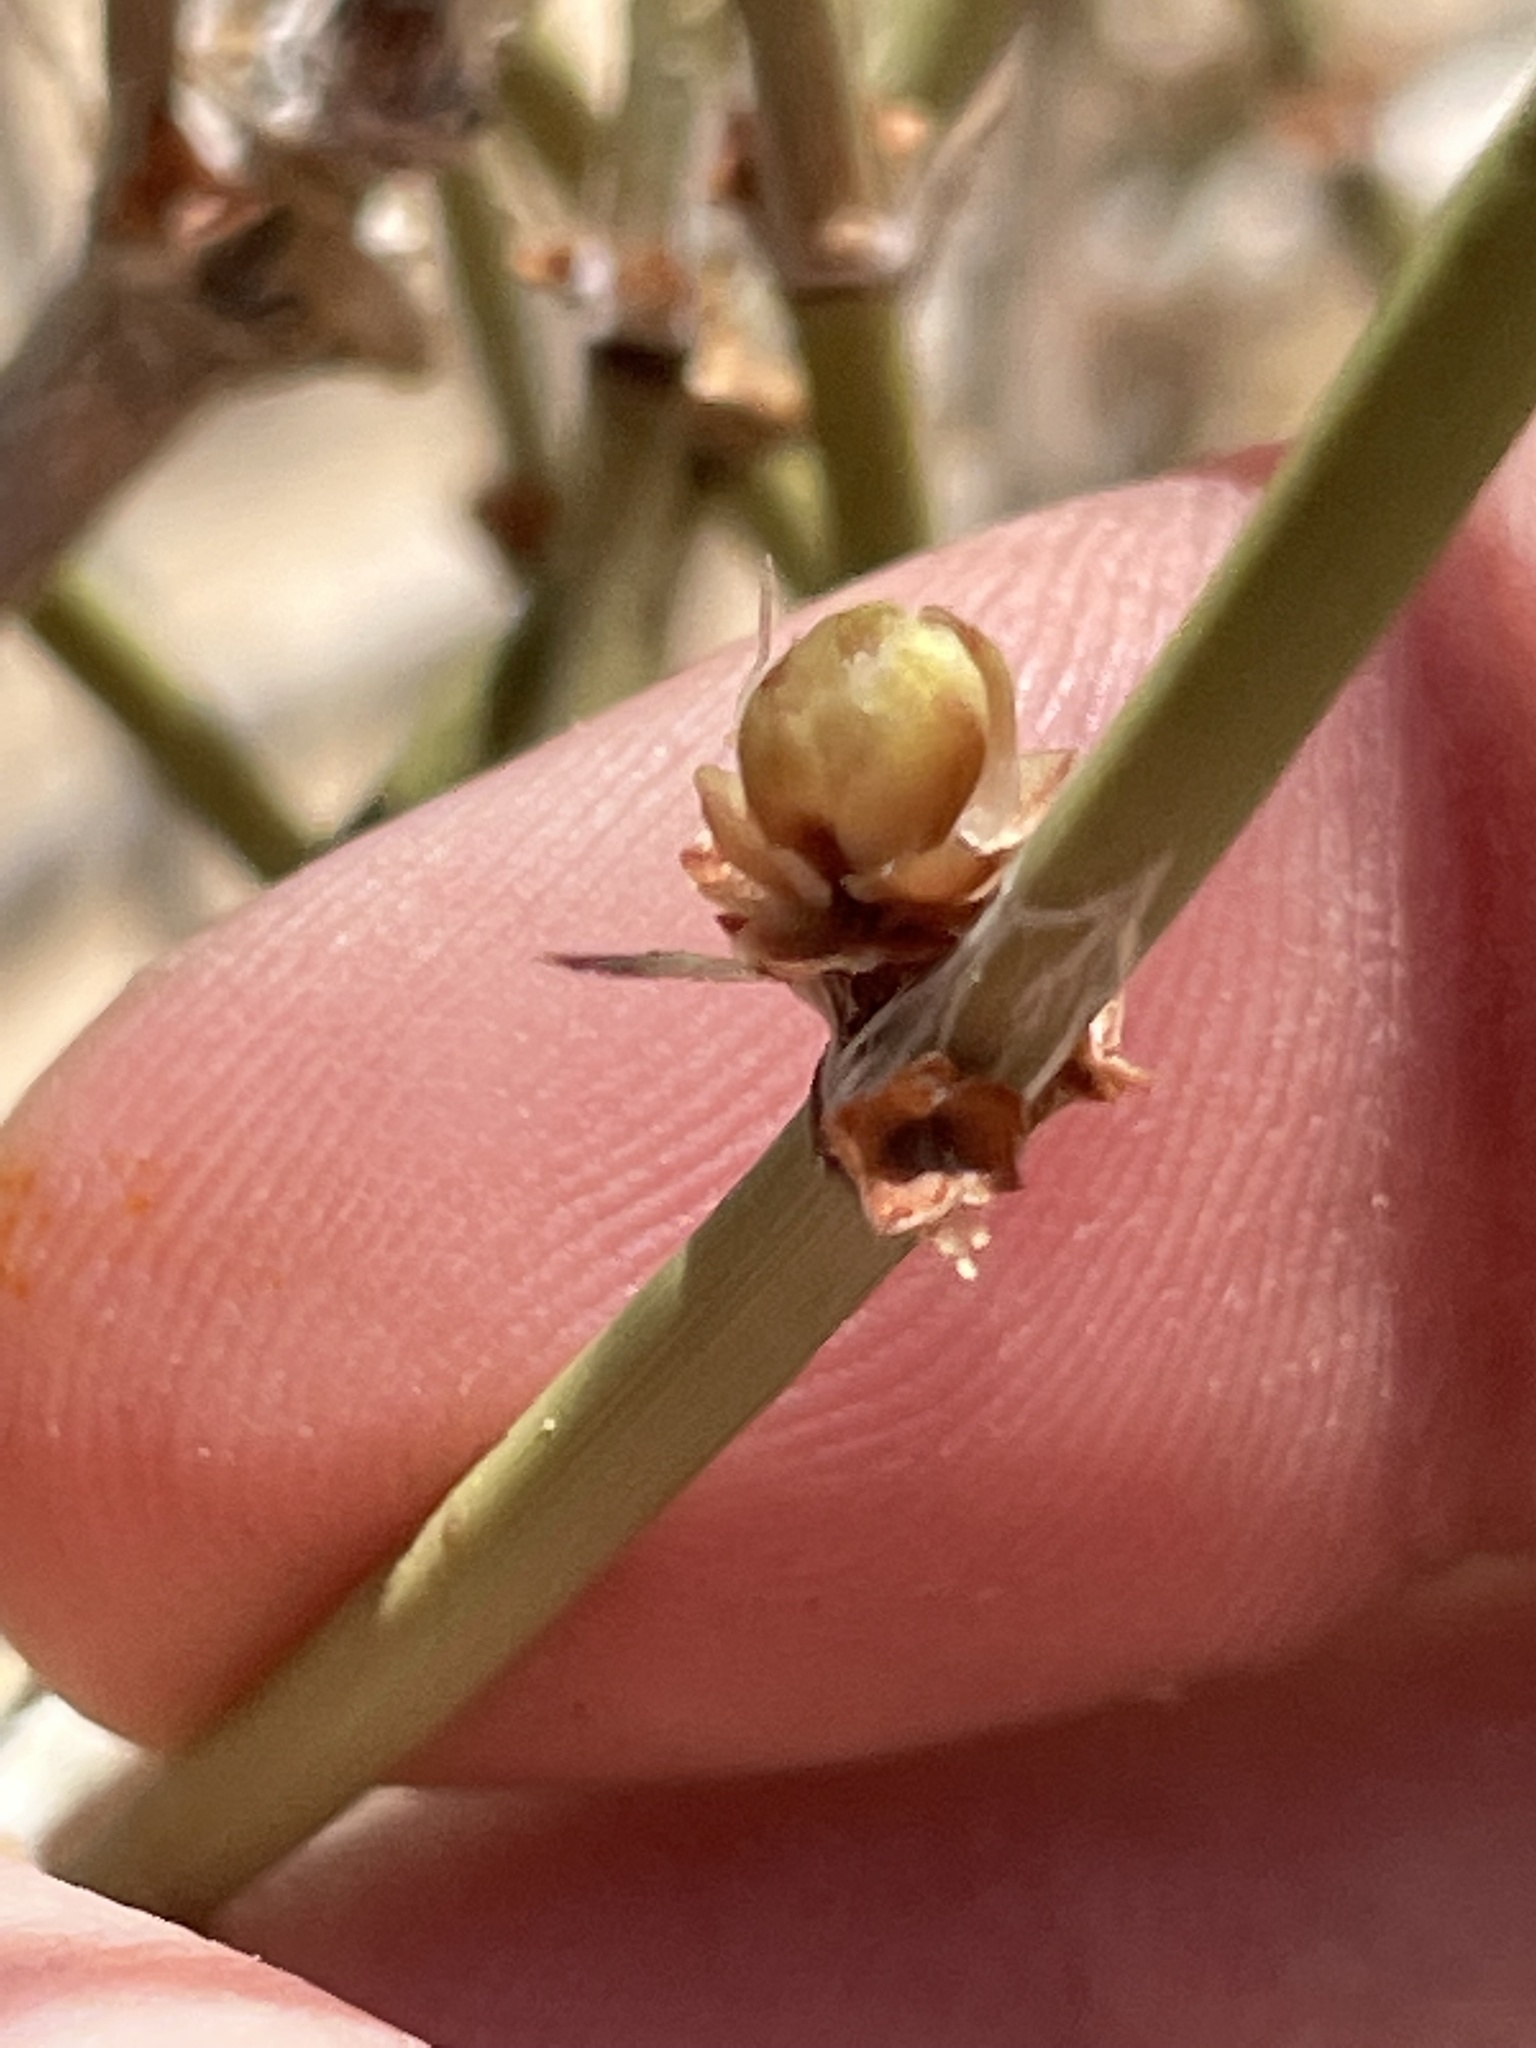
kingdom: Plantae
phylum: Tracheophyta
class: Gnetopsida
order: Ephedrales
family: Ephedraceae
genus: Ephedra
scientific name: Ephedra trifurca
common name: Mexican-tea
